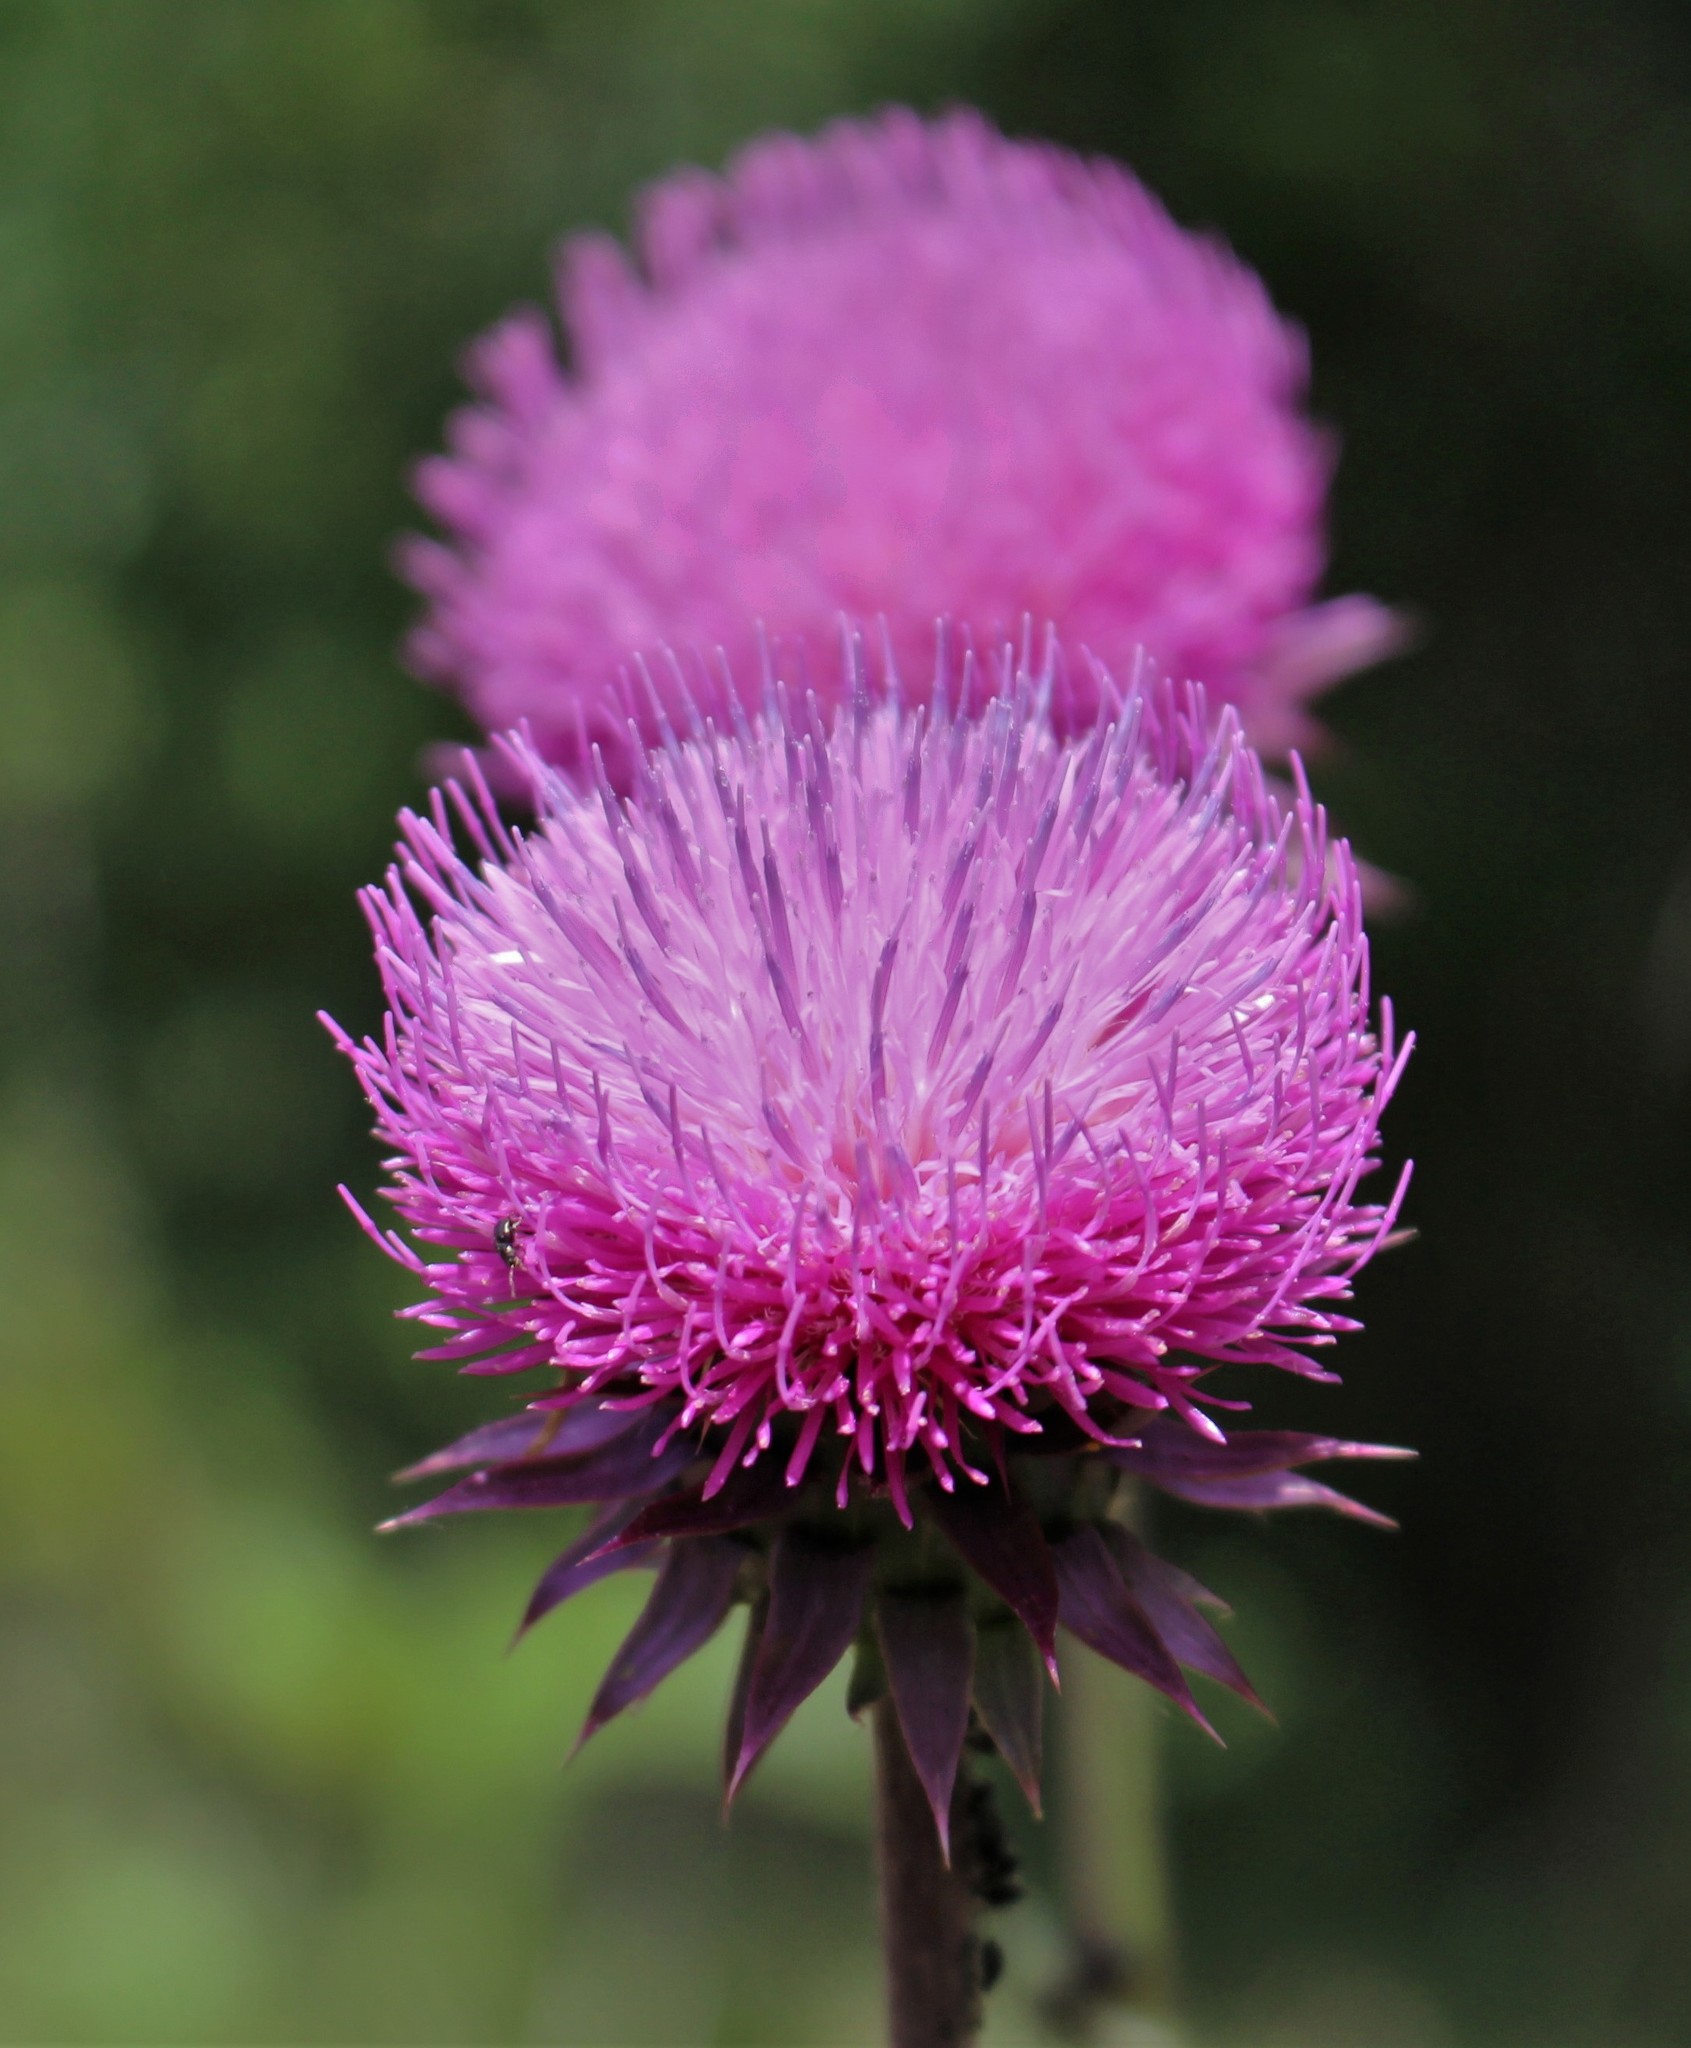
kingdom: Plantae
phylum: Tracheophyta
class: Magnoliopsida
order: Asterales
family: Asteraceae
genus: Carduus
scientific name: Carduus nutans
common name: Musk thistle
